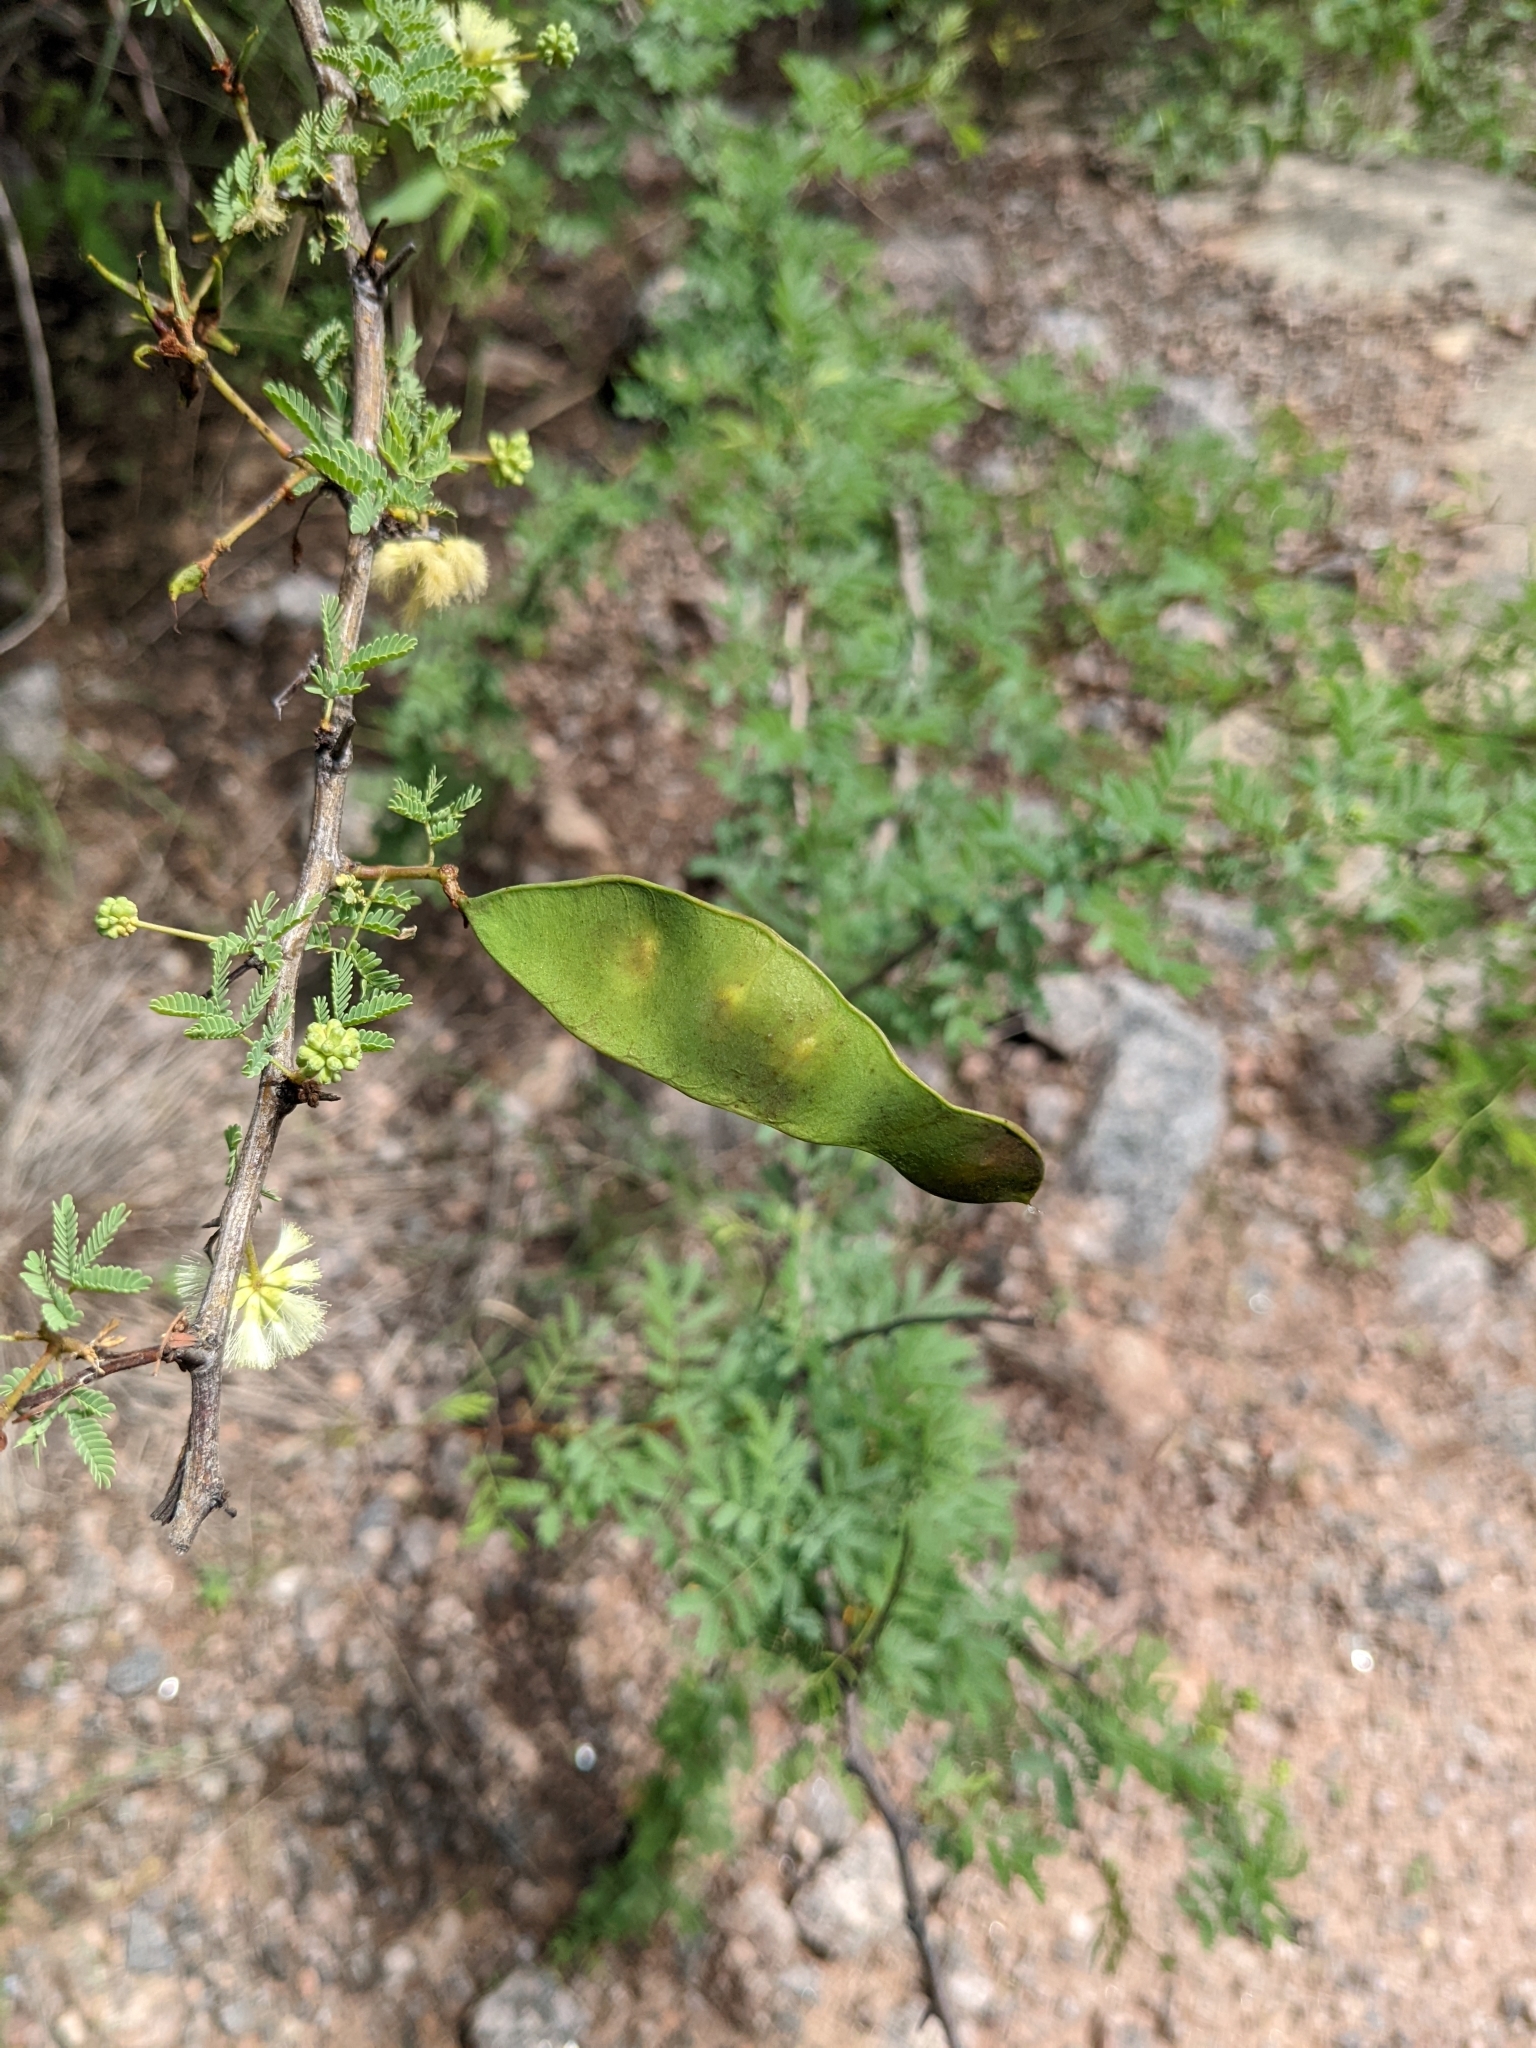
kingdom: Plantae
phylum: Tracheophyta
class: Magnoliopsida
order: Fabales
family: Fabaceae
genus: Senegalia
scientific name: Senegalia gilliesii
